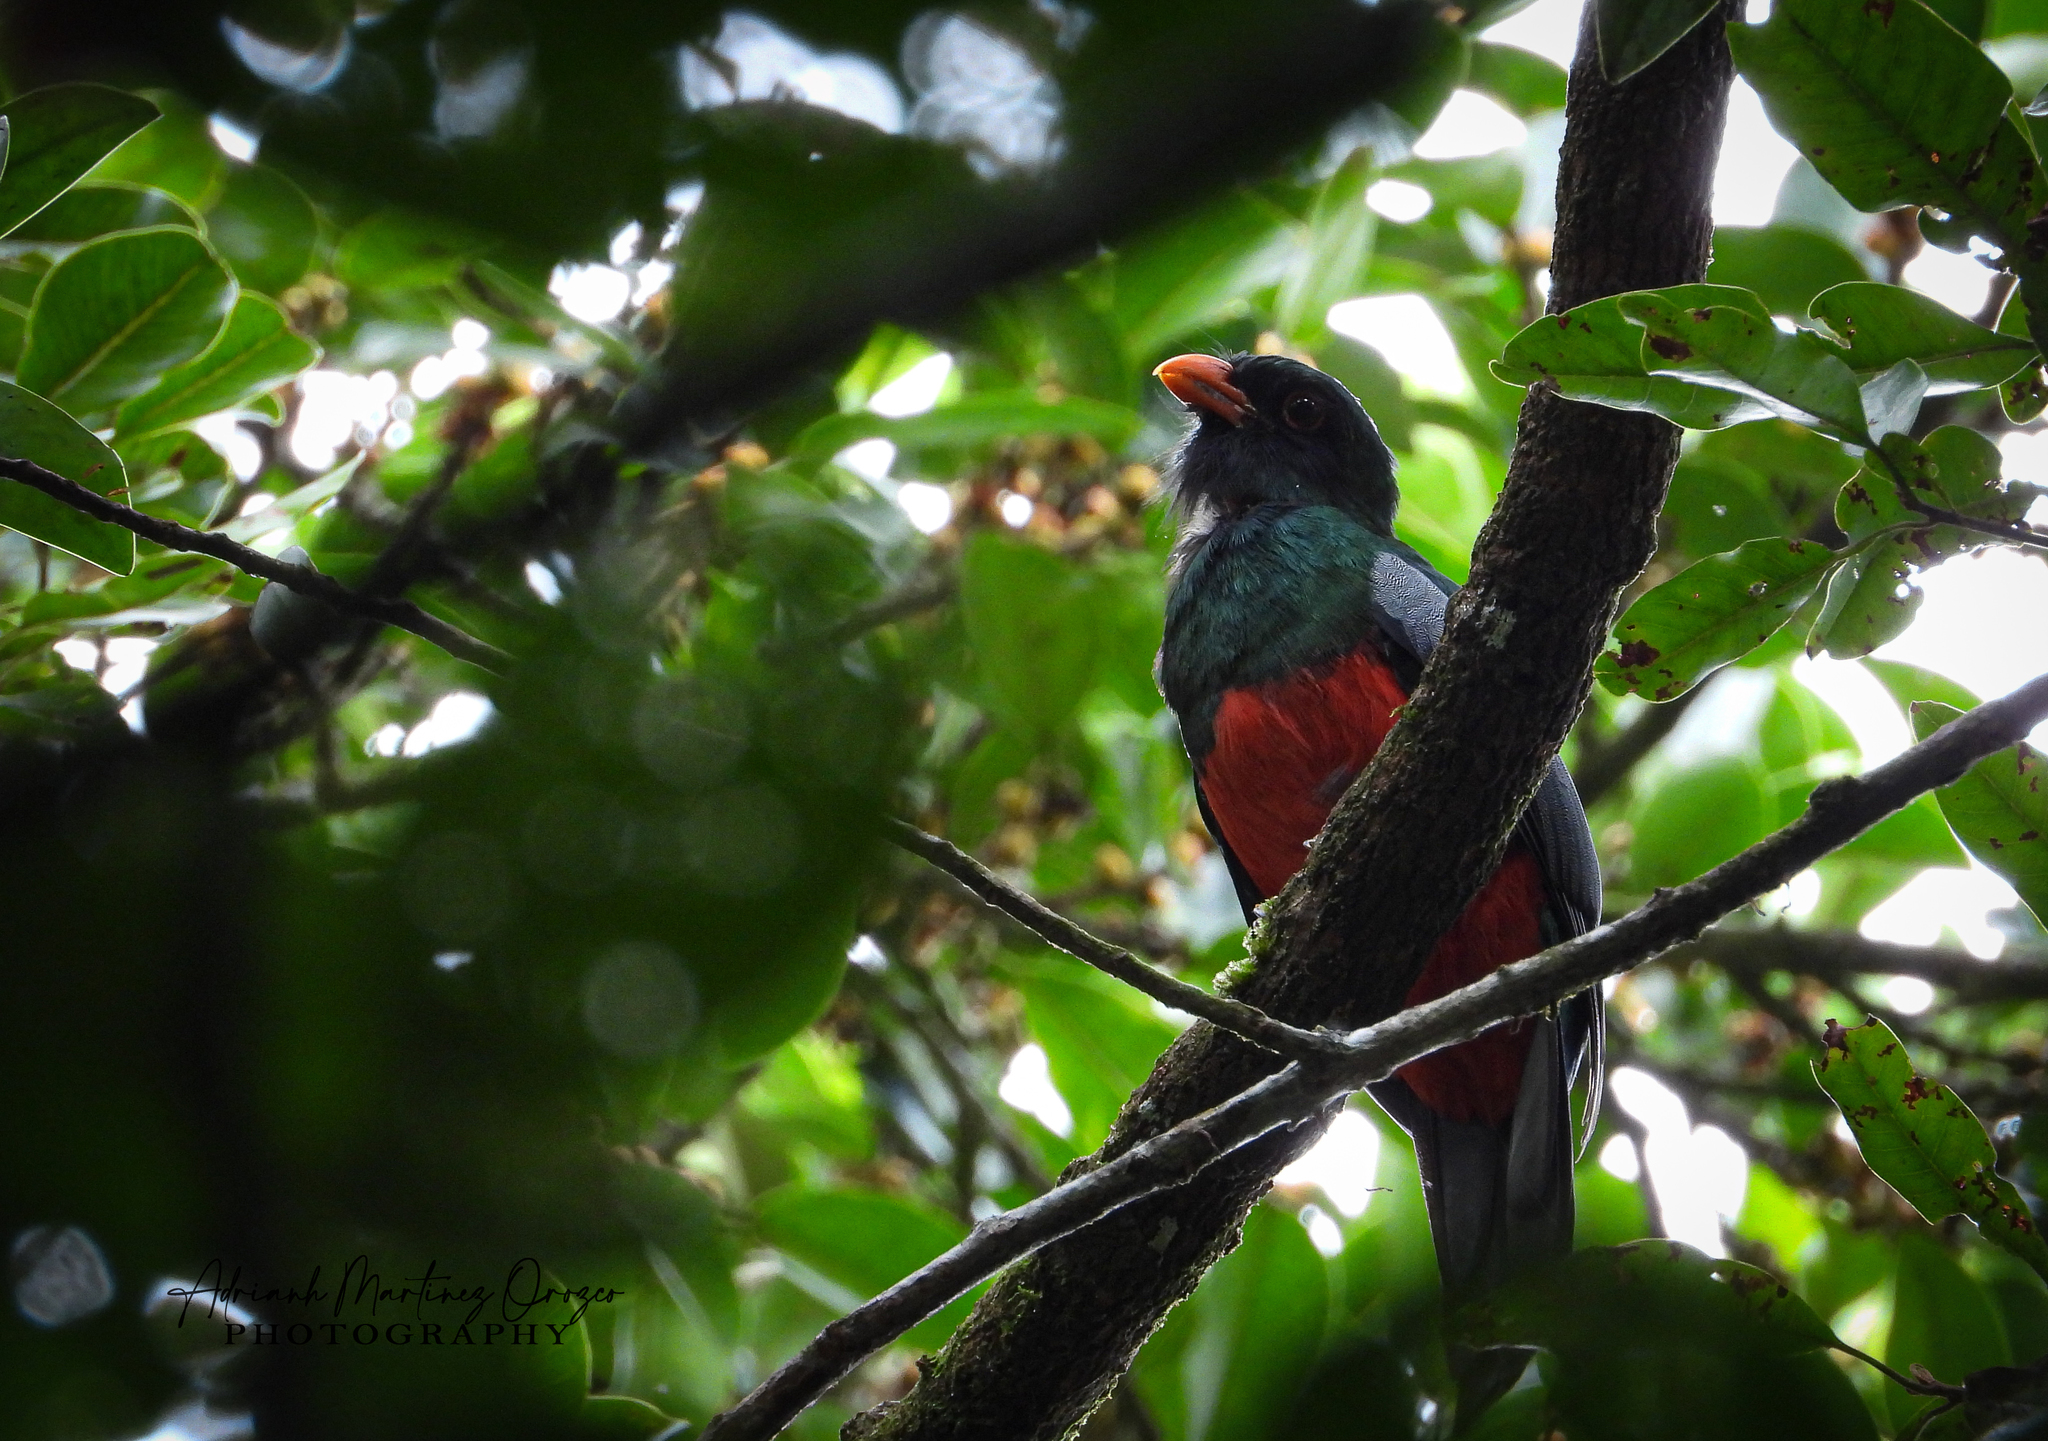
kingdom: Animalia
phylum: Chordata
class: Aves
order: Trogoniformes
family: Trogonidae
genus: Trogon
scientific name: Trogon massena
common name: Slaty-tailed trogon
